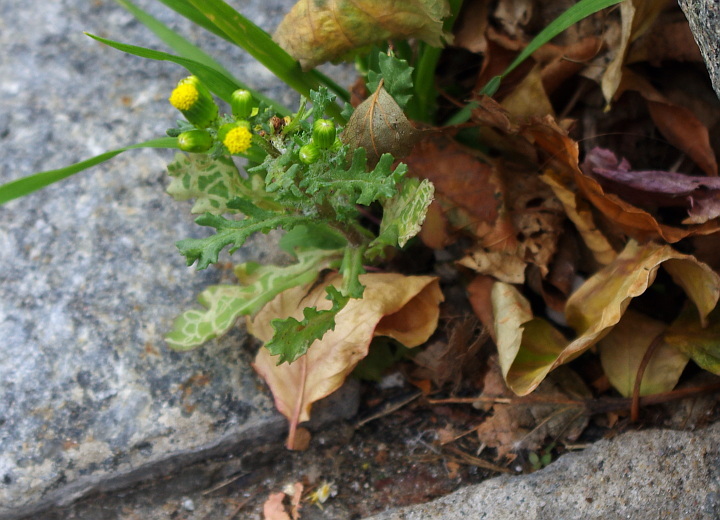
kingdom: Plantae
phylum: Tracheophyta
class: Magnoliopsida
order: Asterales
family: Asteraceae
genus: Senecio
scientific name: Senecio vulgaris
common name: Old-man-in-the-spring
